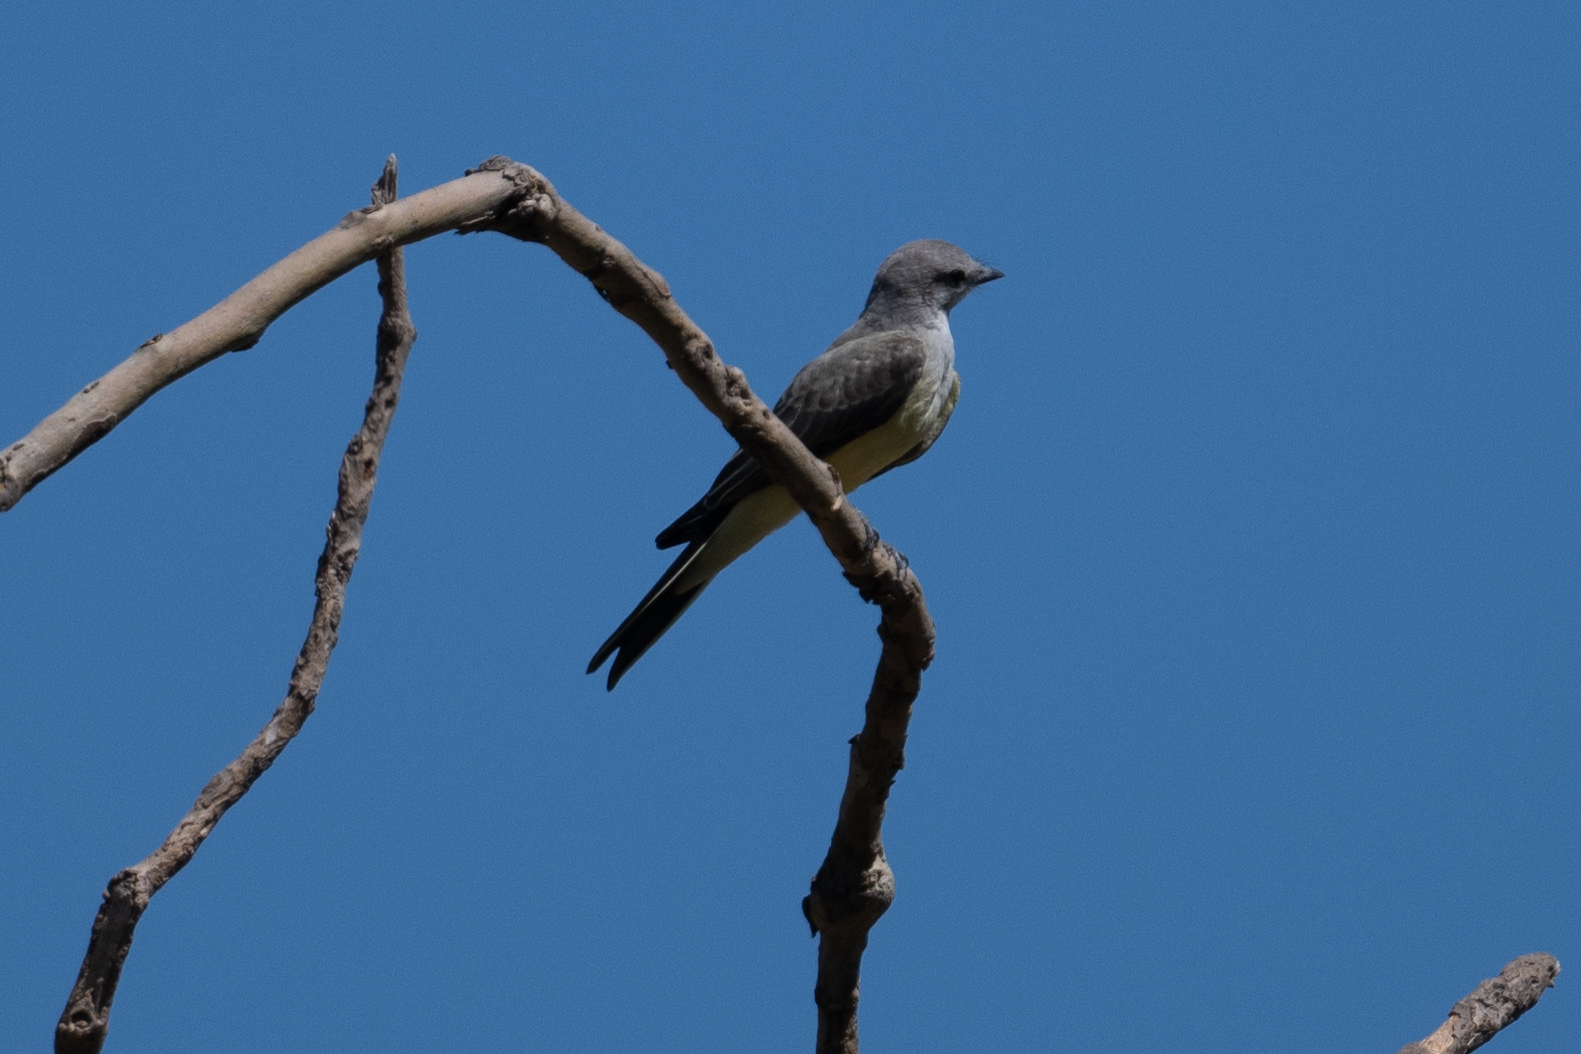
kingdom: Animalia
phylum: Chordata
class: Aves
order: Passeriformes
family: Tyrannidae
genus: Tyrannus
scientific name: Tyrannus verticalis
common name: Western kingbird
